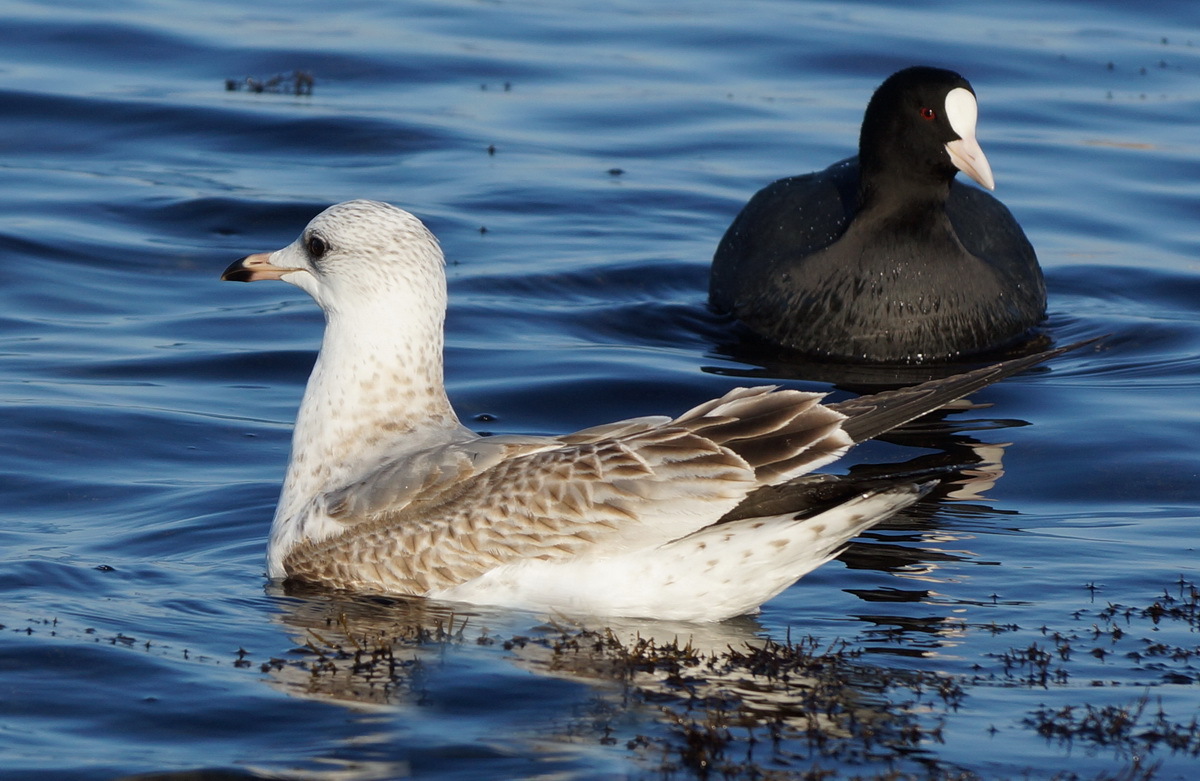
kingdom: Animalia
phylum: Chordata
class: Aves
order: Charadriiformes
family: Laridae
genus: Larus
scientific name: Larus canus
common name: Mew gull
